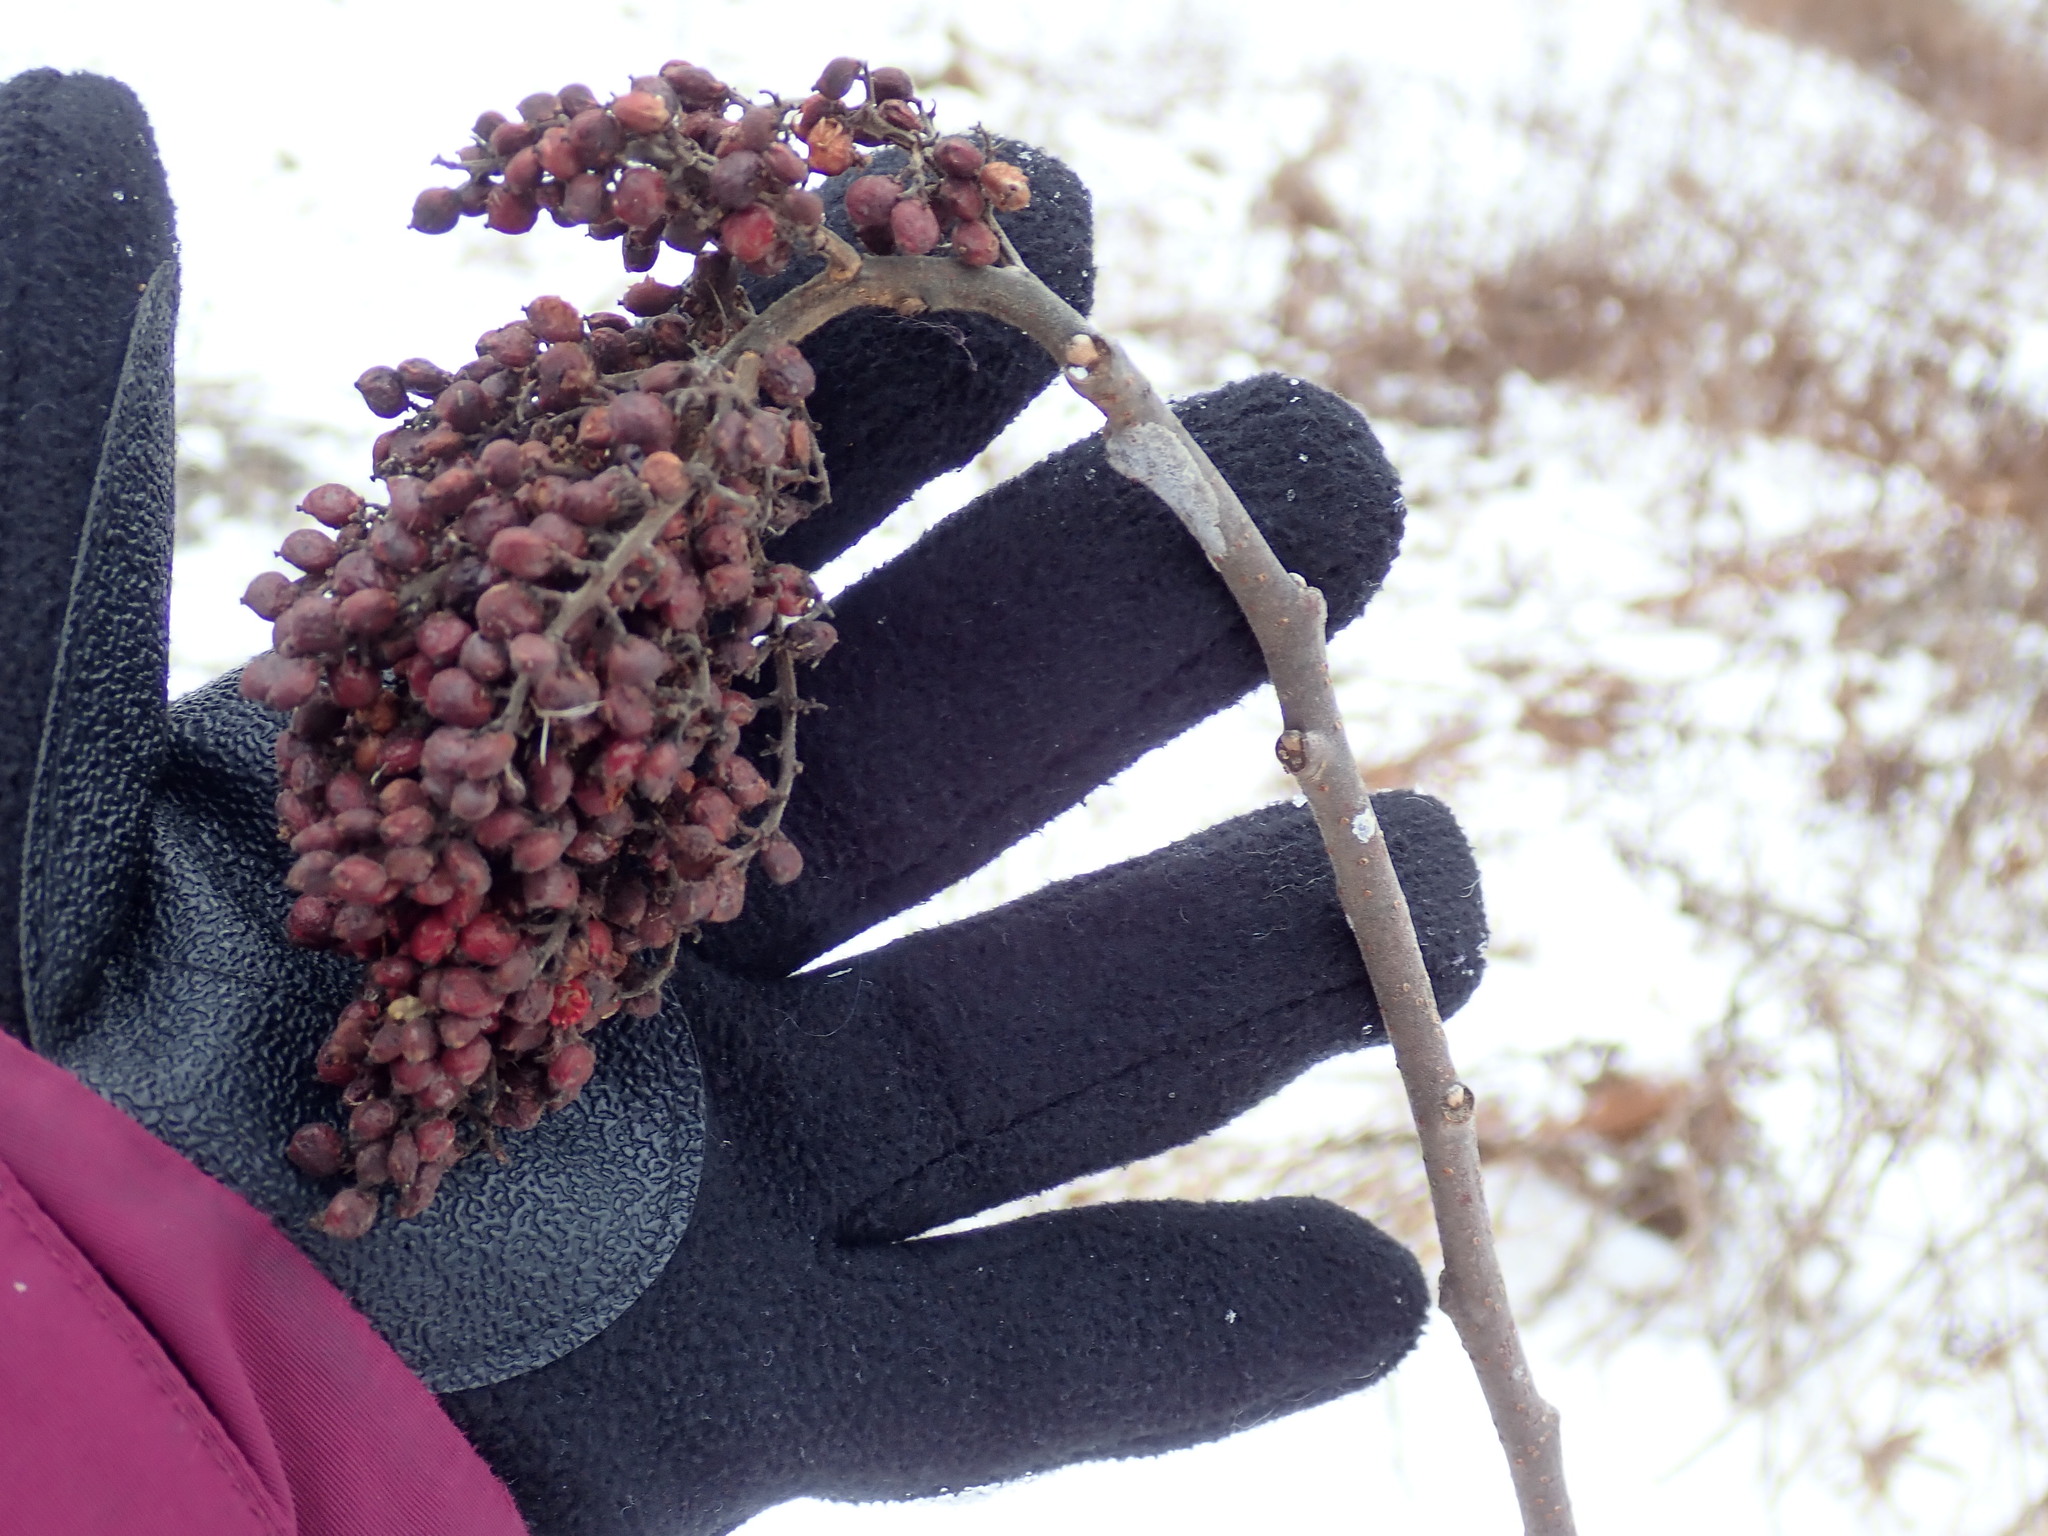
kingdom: Plantae
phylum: Tracheophyta
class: Magnoliopsida
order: Sapindales
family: Anacardiaceae
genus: Rhus
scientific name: Rhus glabra
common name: Scarlet sumac
